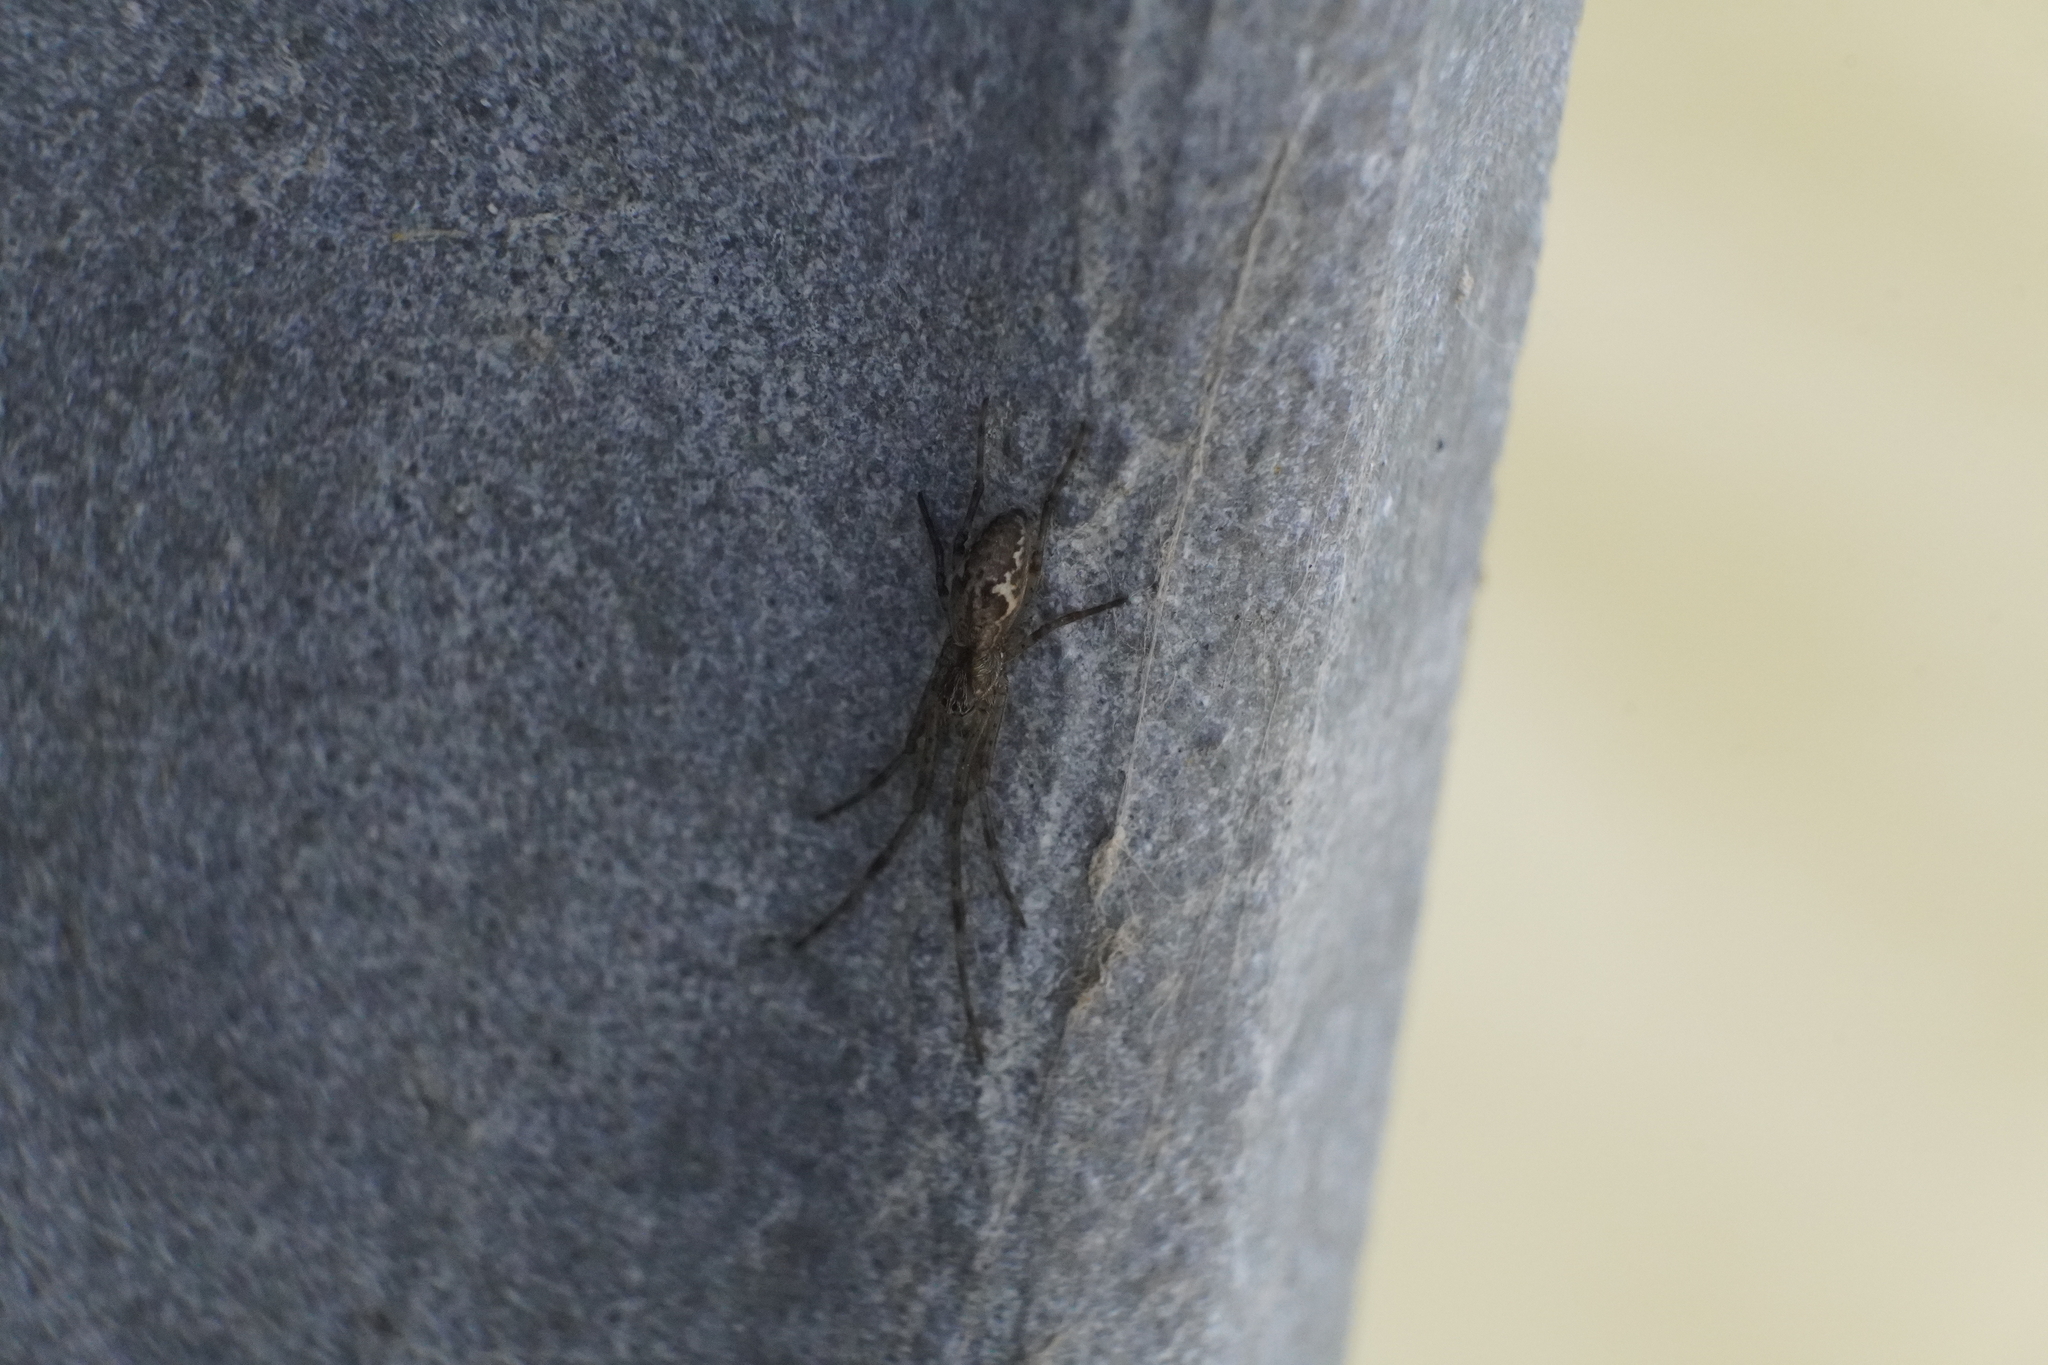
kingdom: Animalia
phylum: Arthropoda
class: Arachnida
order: Araneae
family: Tetragnathidae
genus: Tetragnatha
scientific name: Tetragnatha
